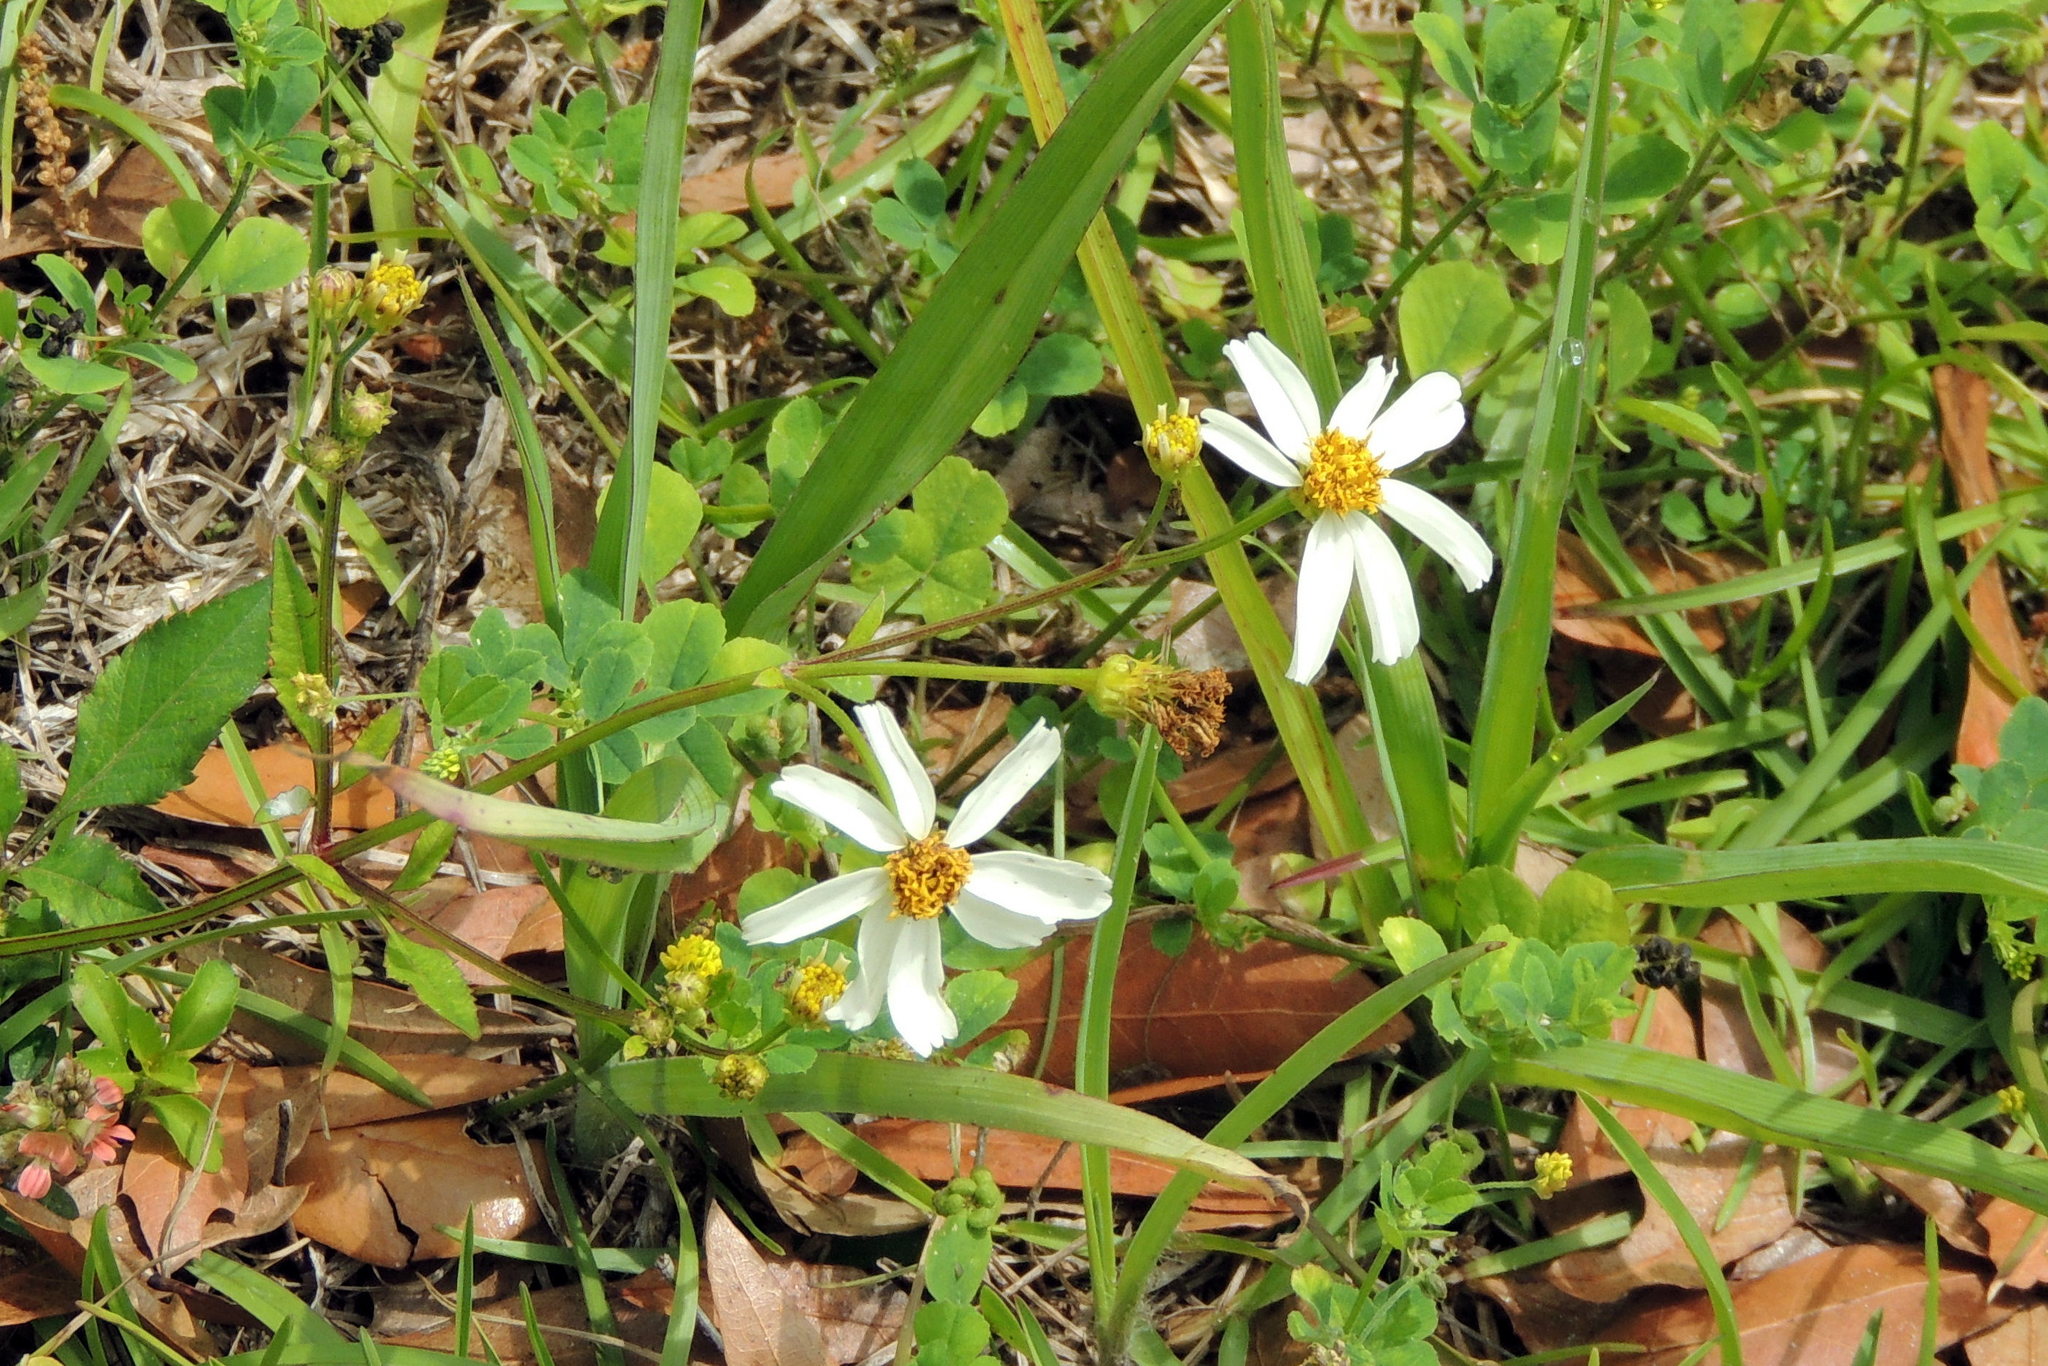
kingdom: Plantae
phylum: Tracheophyta
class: Magnoliopsida
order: Asterales
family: Asteraceae
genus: Bidens
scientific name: Bidens alba
